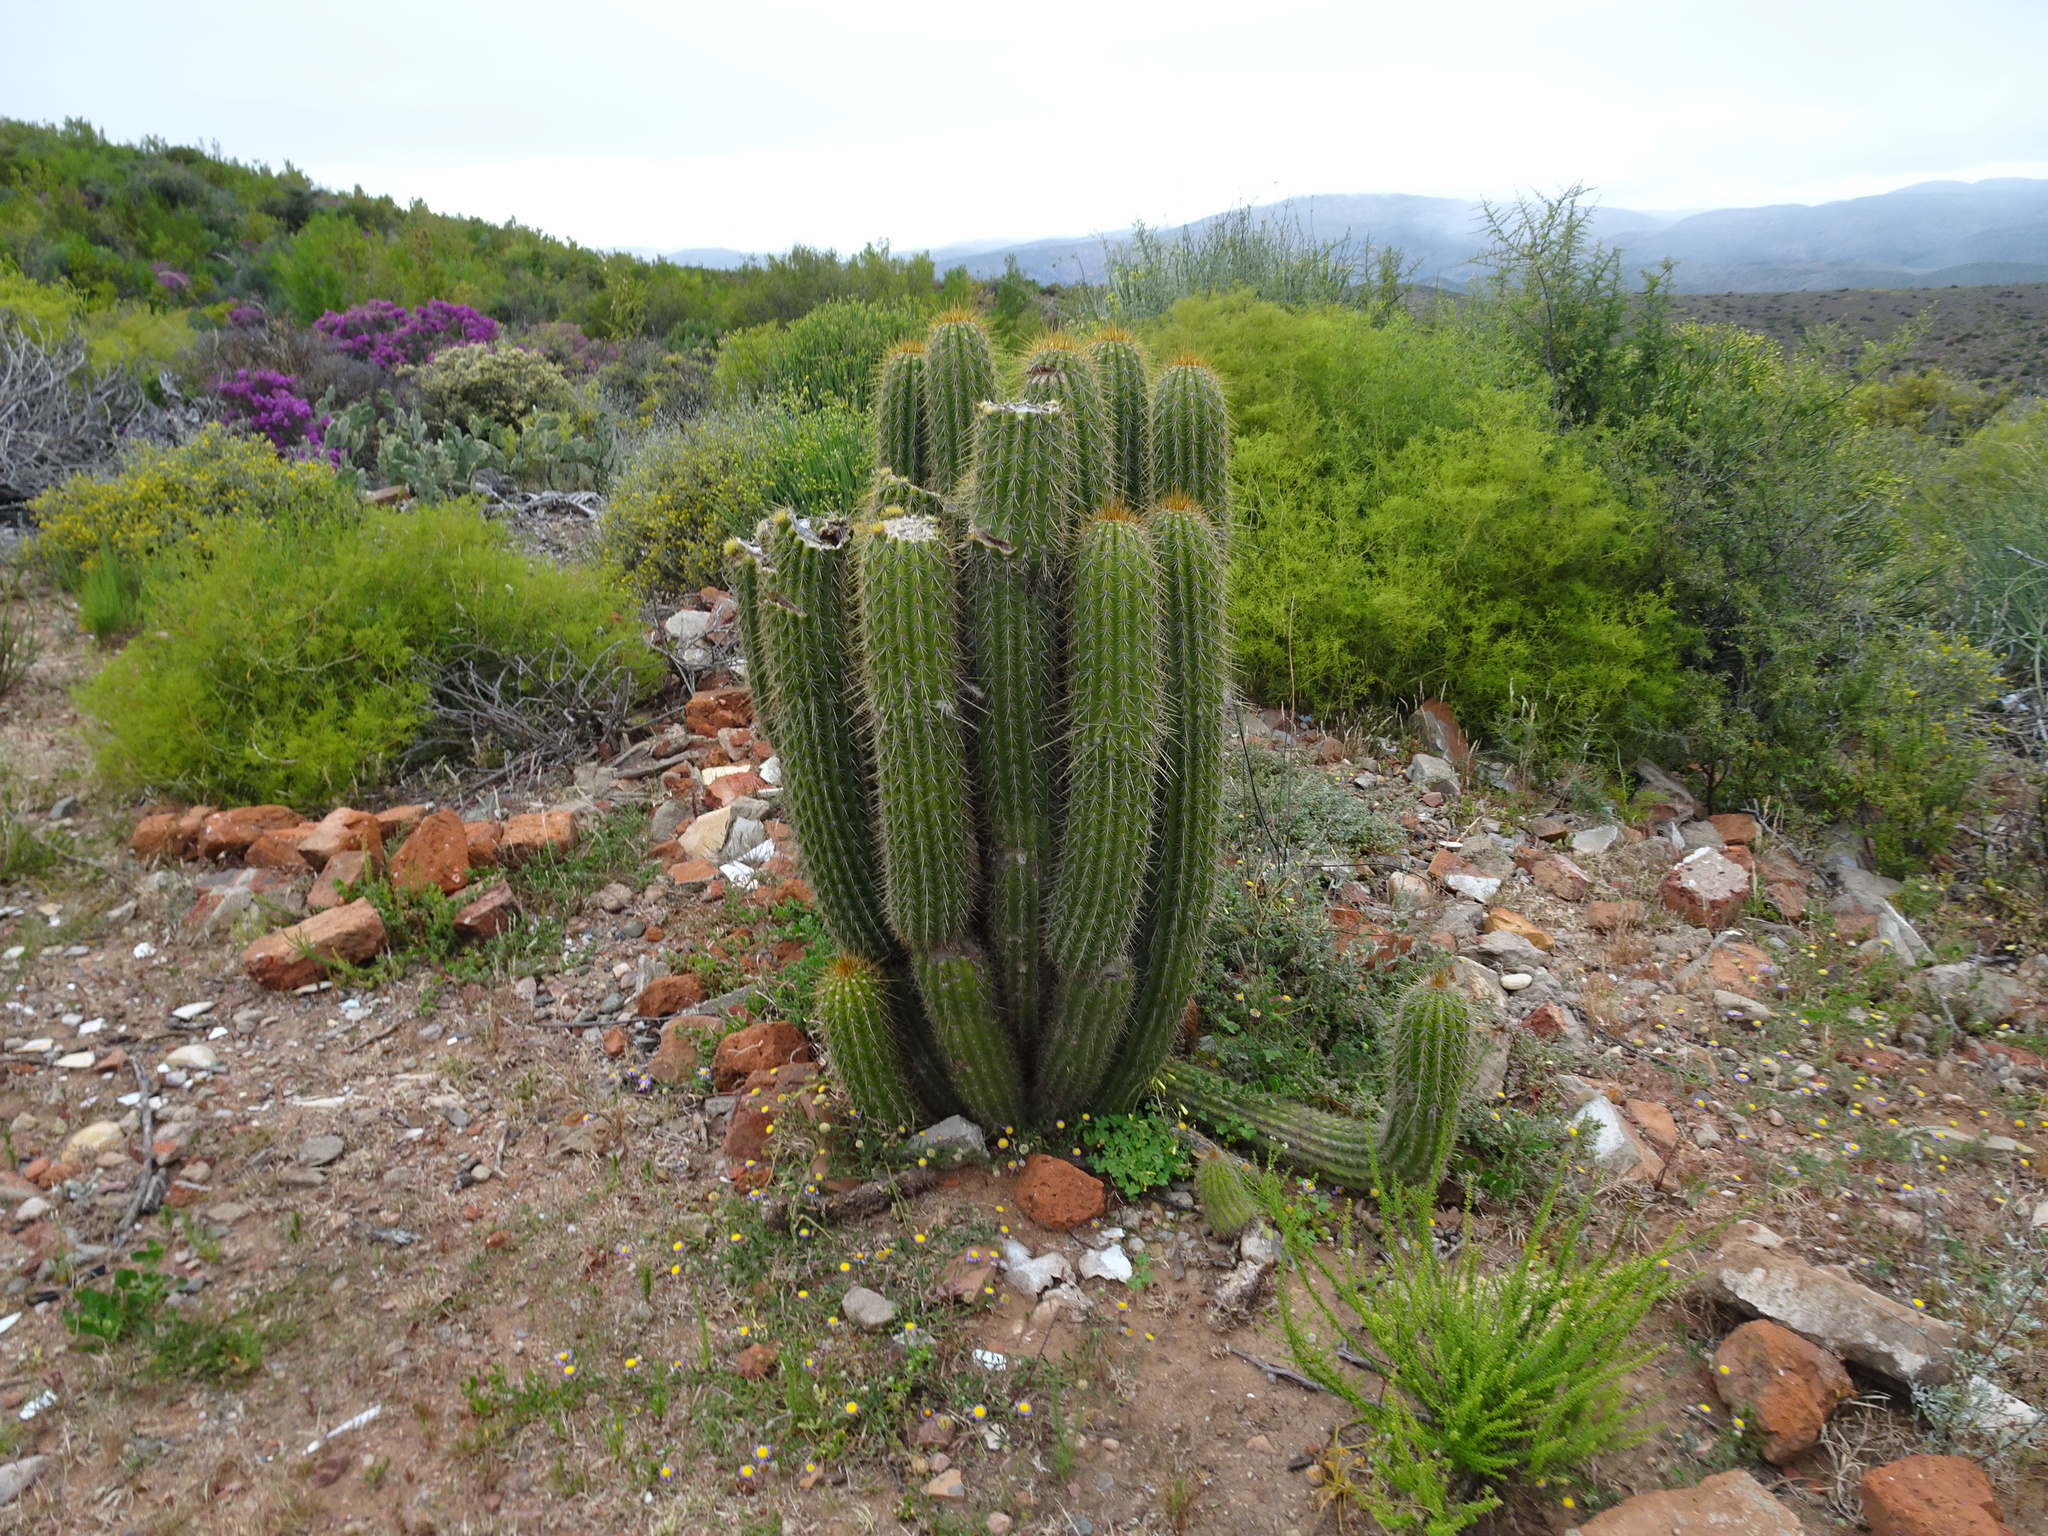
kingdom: Plantae
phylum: Tracheophyta
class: Magnoliopsida
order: Caryophyllales
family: Cactaceae
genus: Soehrensia
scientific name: Soehrensia spachiana
